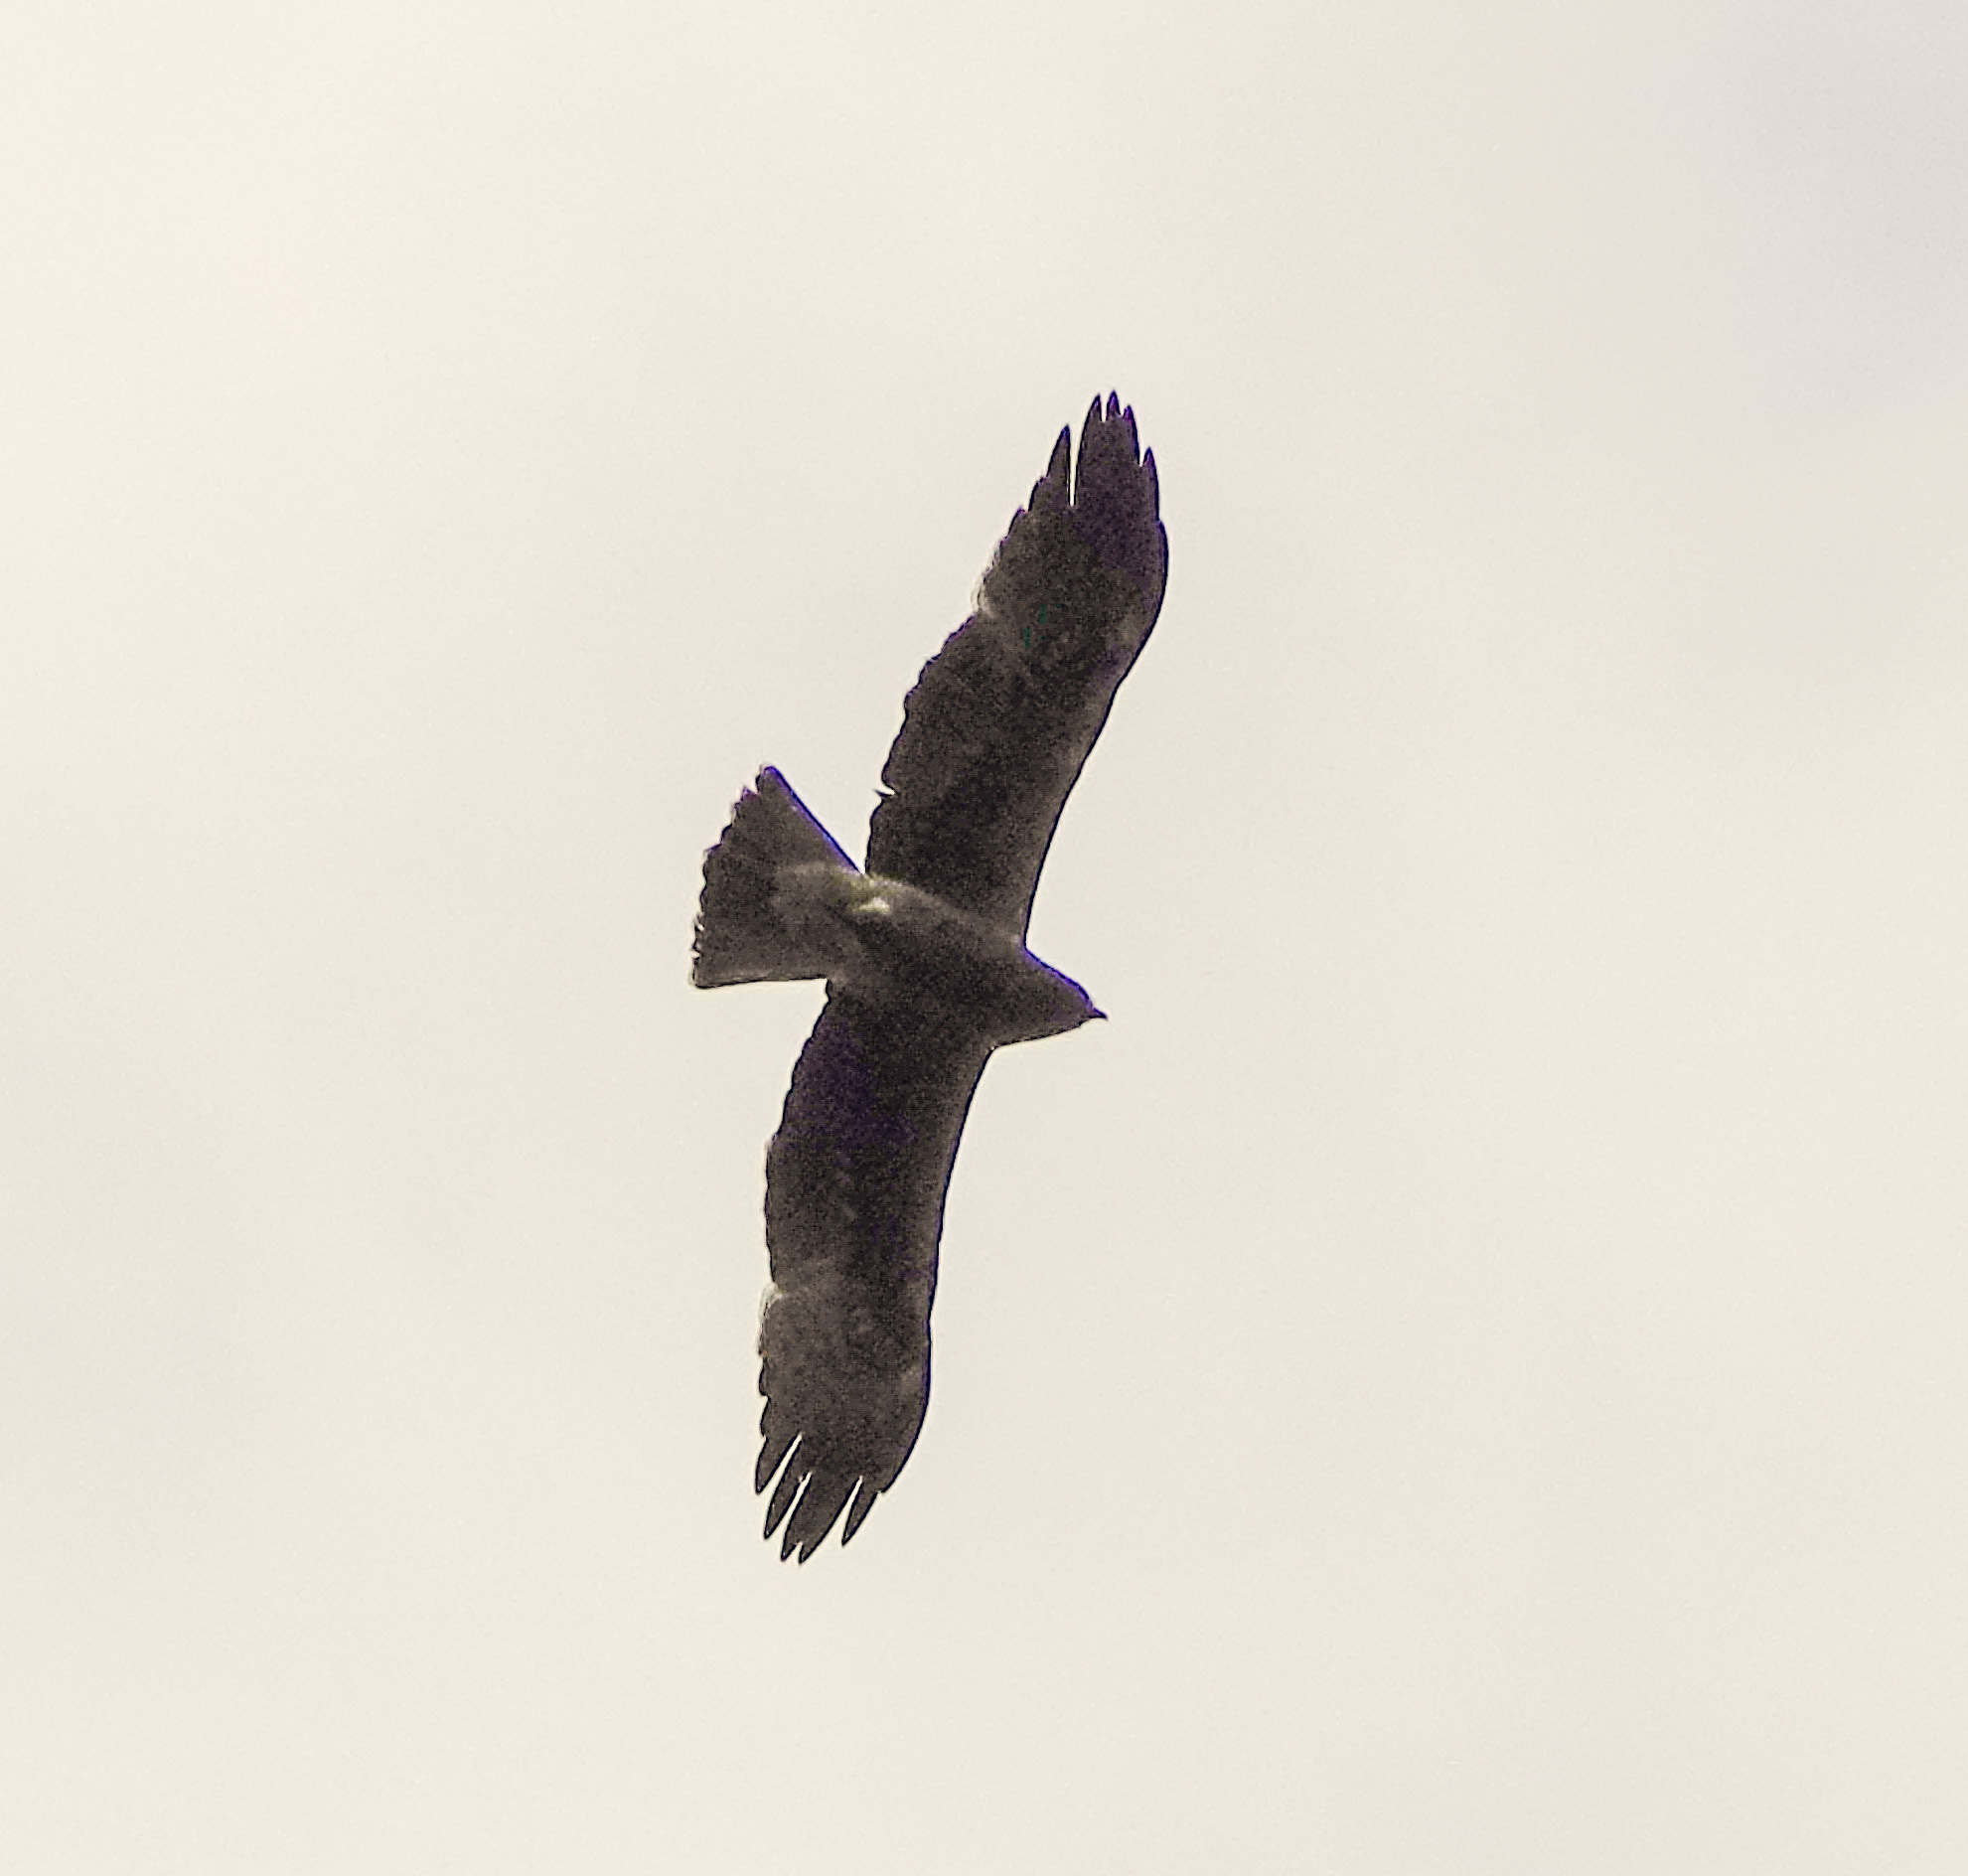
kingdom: Animalia
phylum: Chordata
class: Aves
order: Accipitriformes
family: Accipitridae
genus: Hieraaetus
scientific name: Hieraaetus pennatus
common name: Booted eagle
